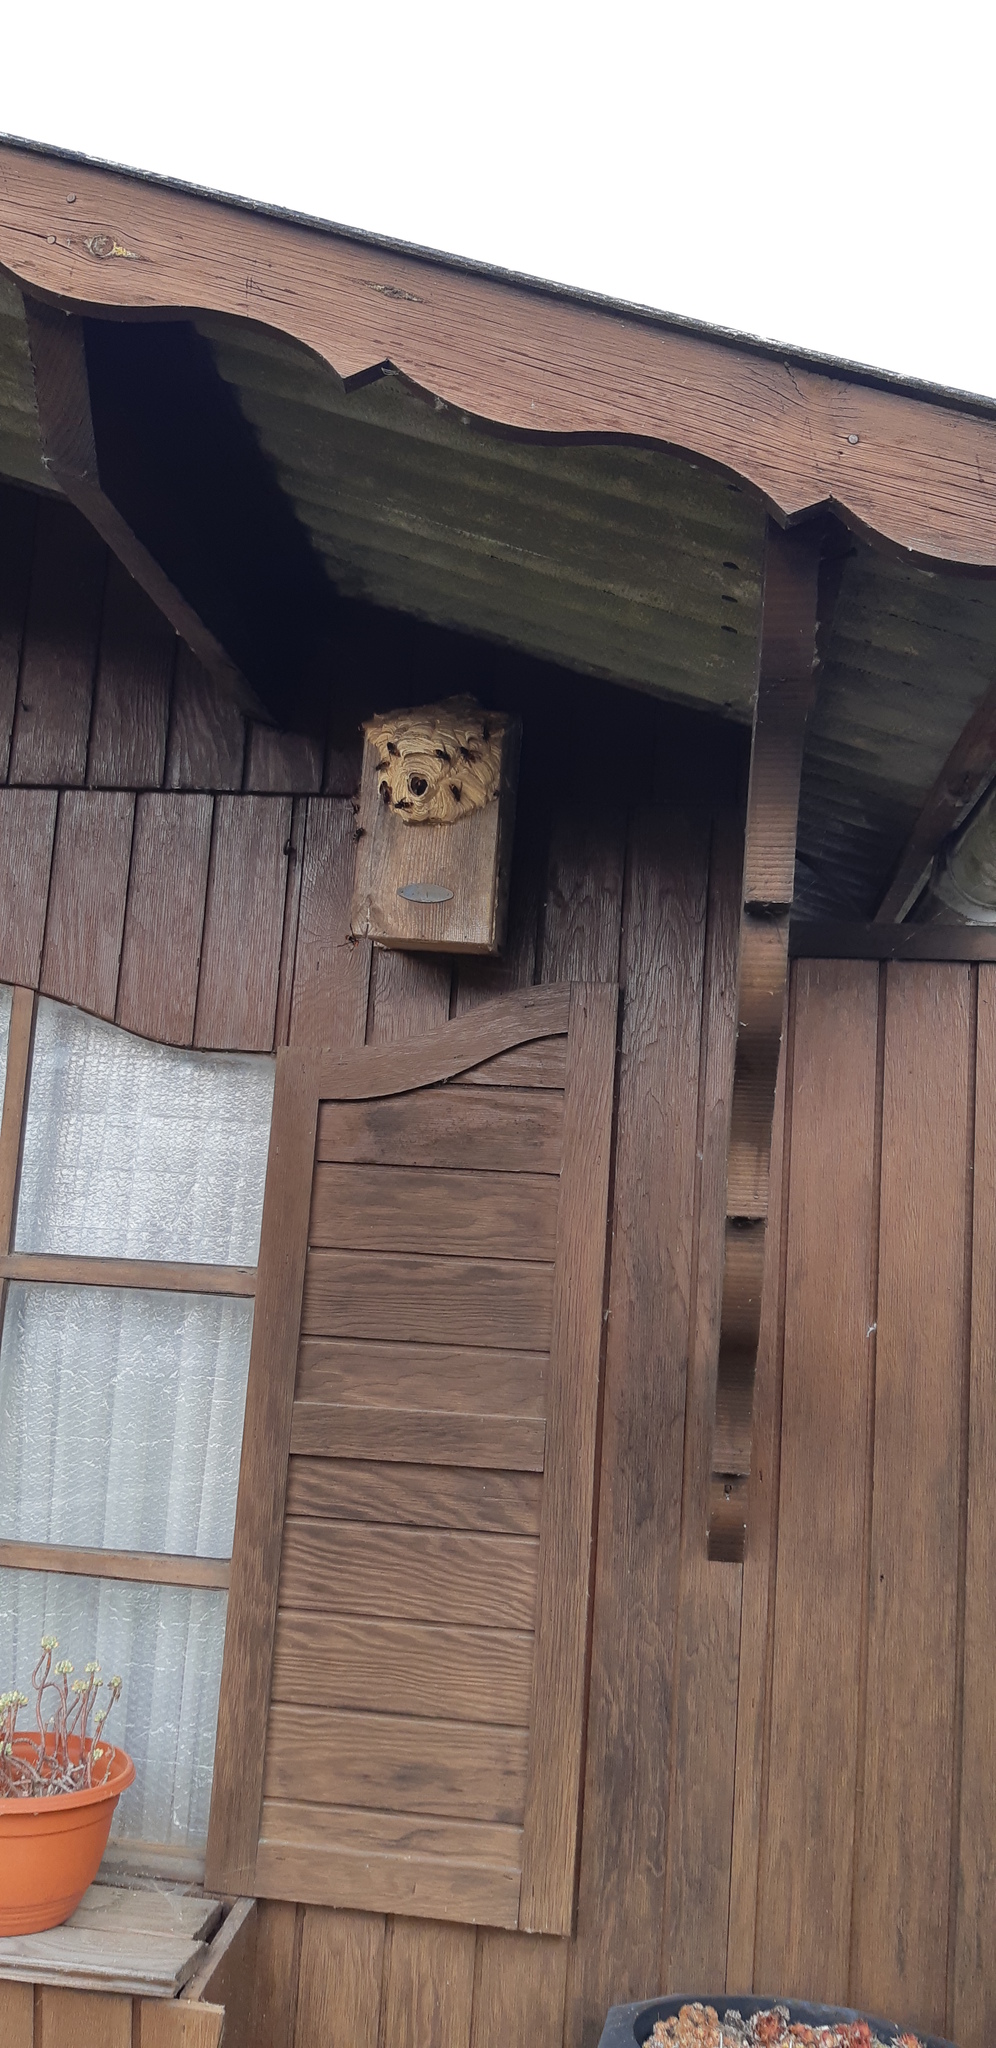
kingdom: Animalia
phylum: Arthropoda
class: Insecta
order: Hymenoptera
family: Vespidae
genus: Vespa
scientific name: Vespa velutina
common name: Asian hornet
